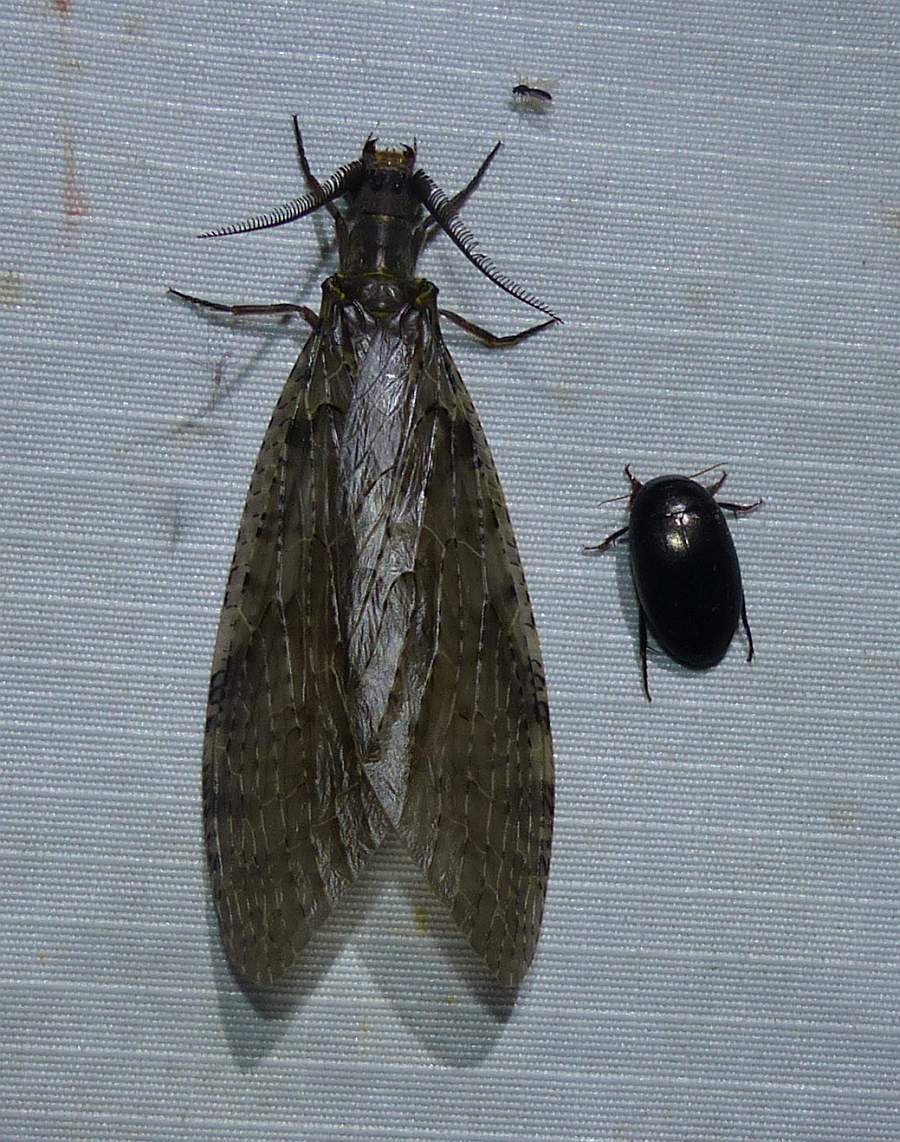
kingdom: Animalia
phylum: Arthropoda
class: Insecta
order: Megaloptera
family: Corydalidae
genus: Chauliodes
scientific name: Chauliodes pectinicornis
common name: Summer fishfly
